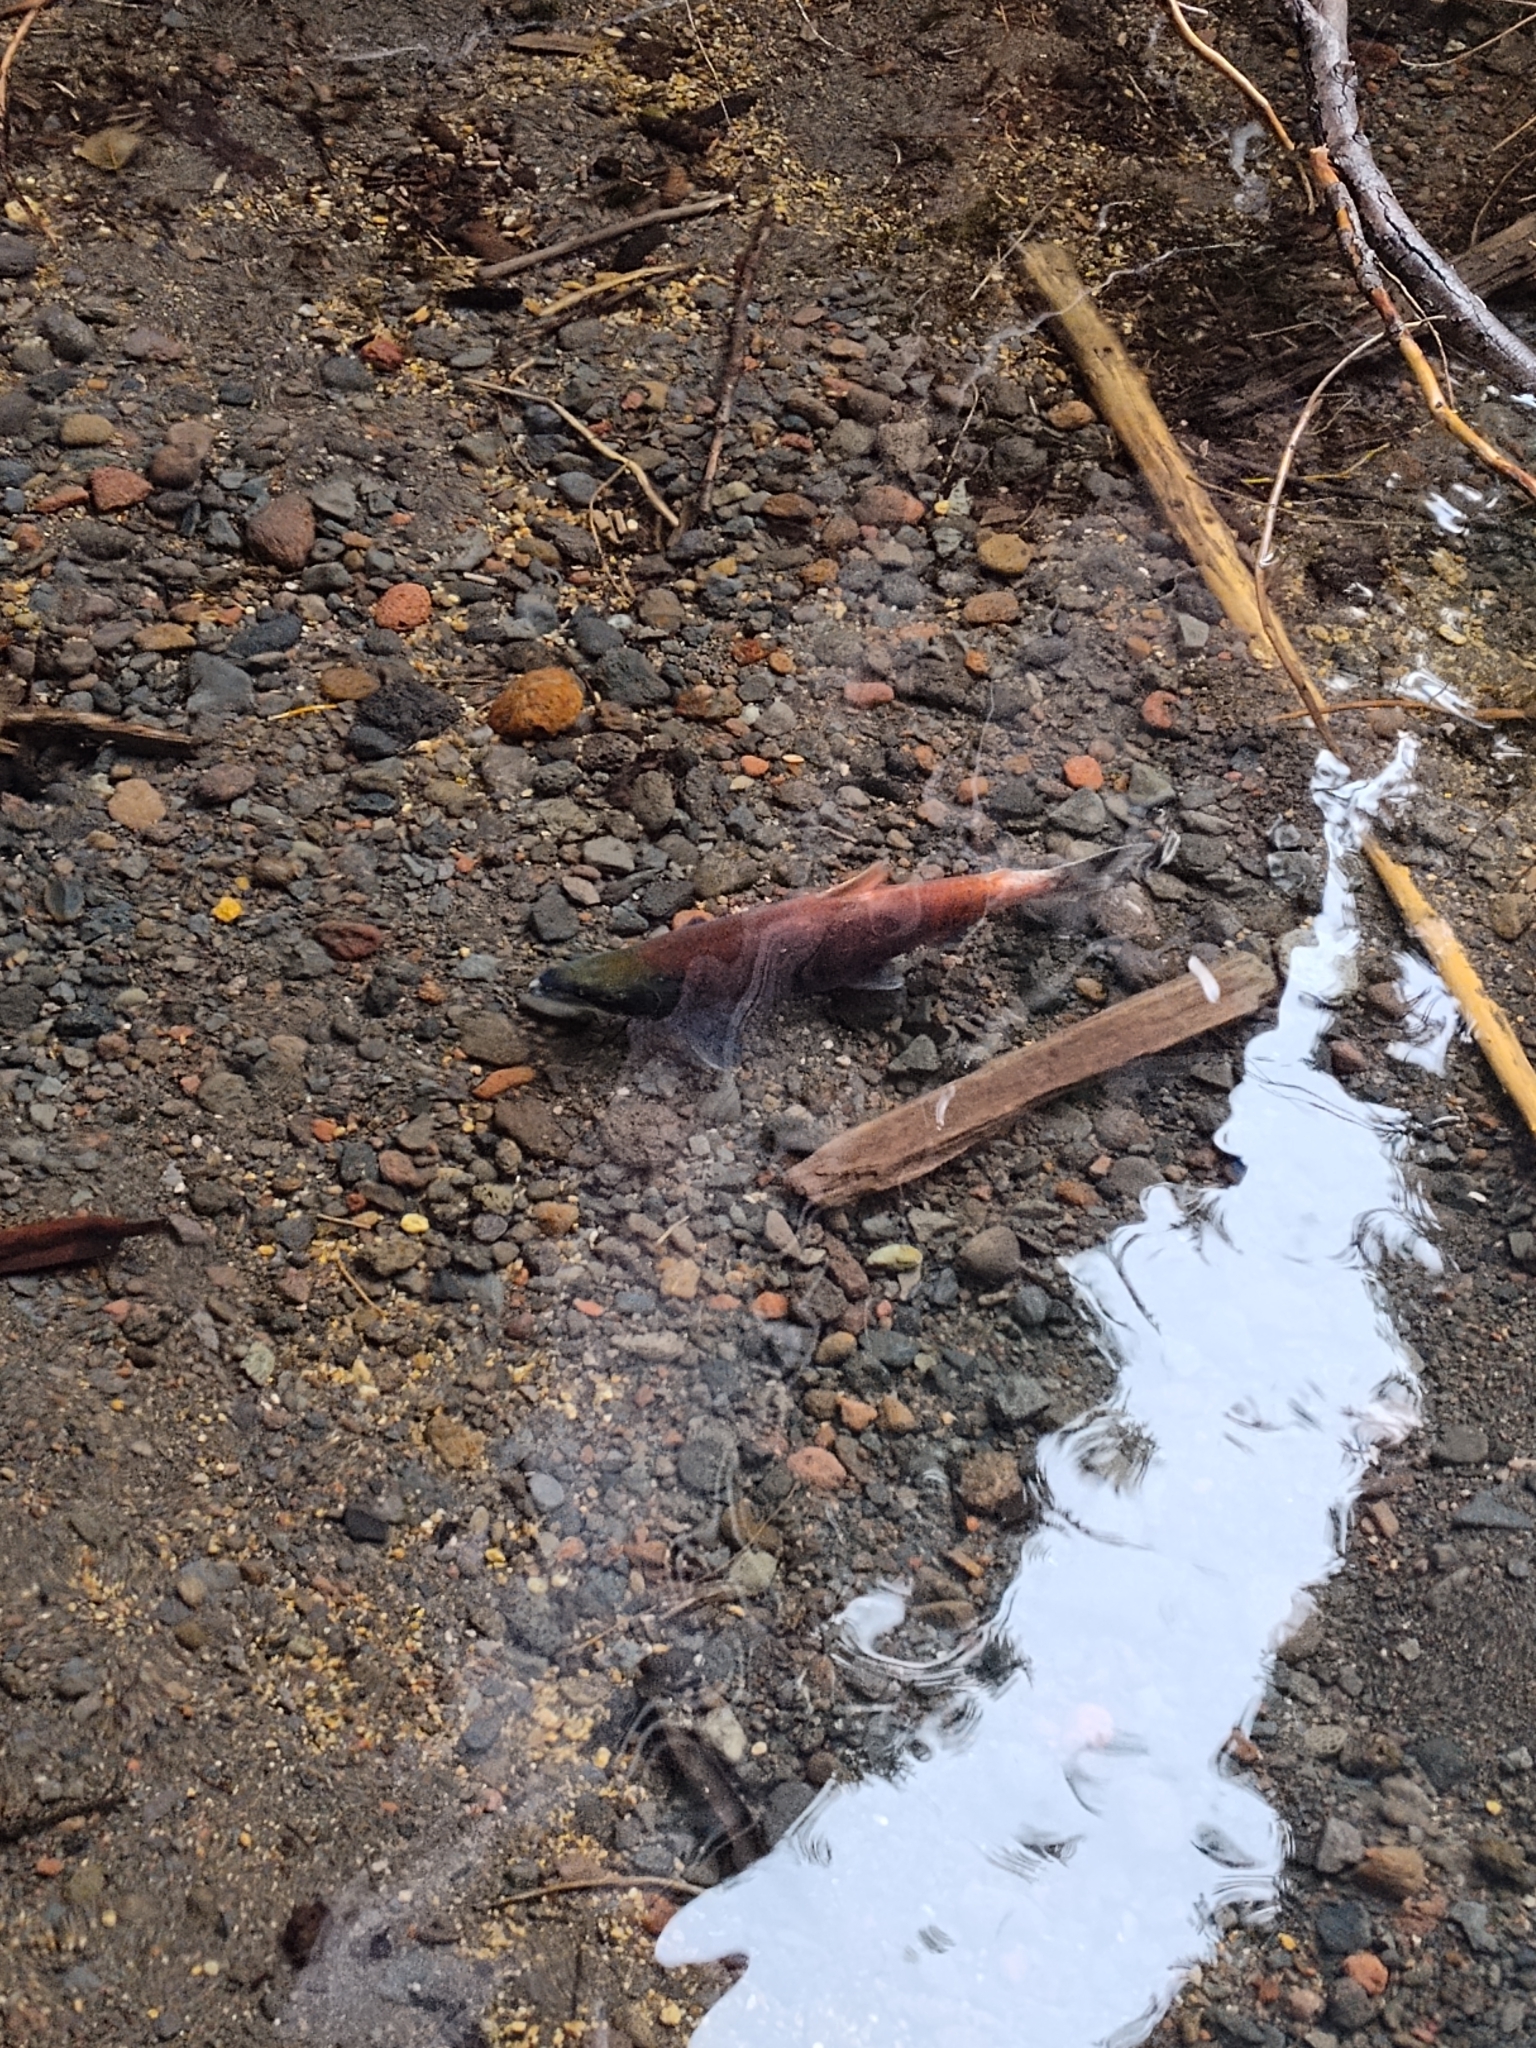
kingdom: Animalia
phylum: Chordata
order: Salmoniformes
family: Salmonidae
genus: Oncorhynchus
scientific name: Oncorhynchus nerka
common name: Sockeye salmon
